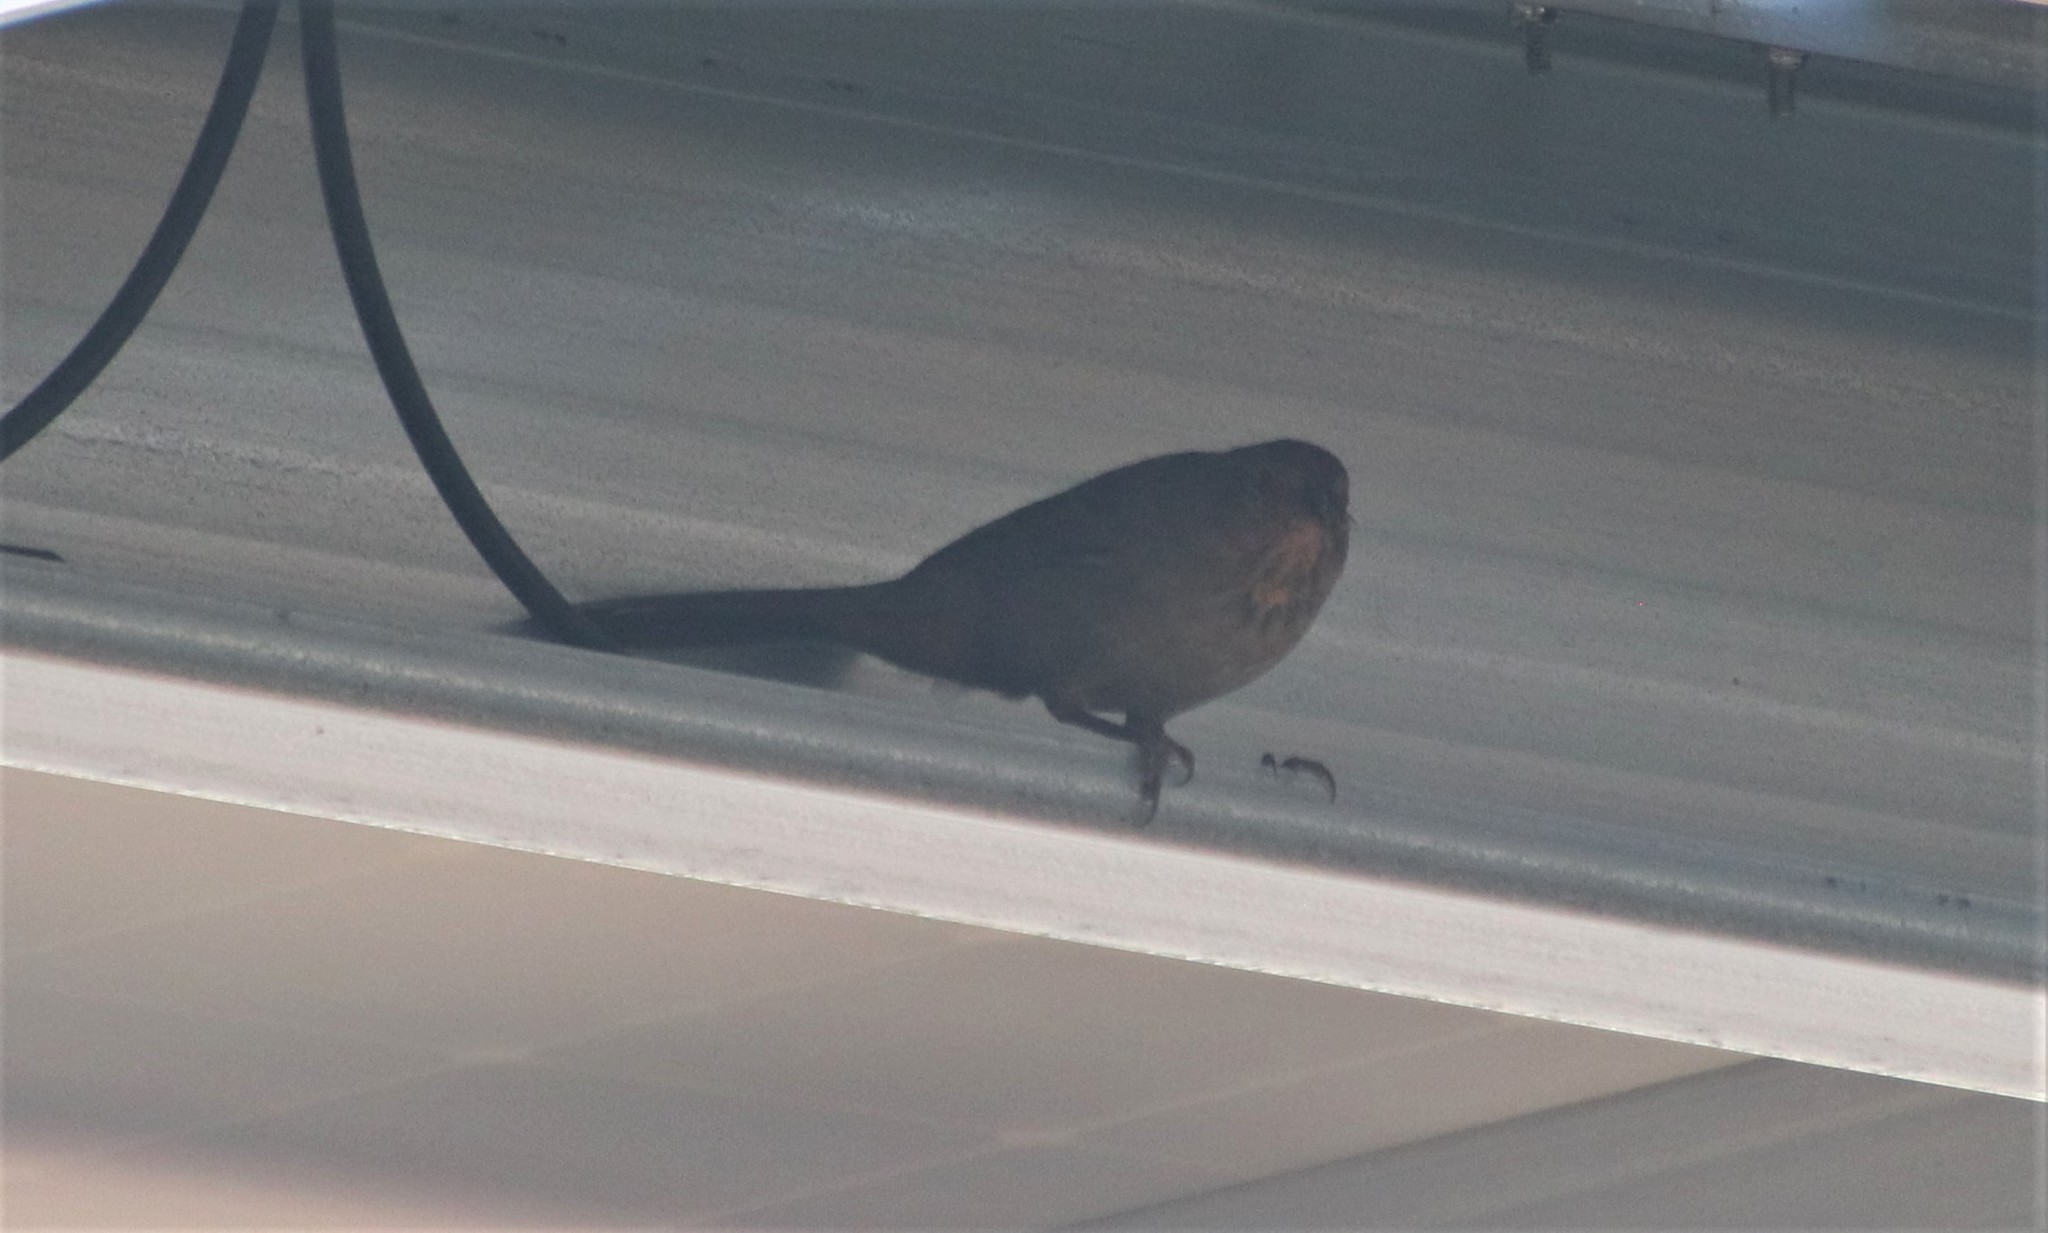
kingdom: Animalia
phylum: Chordata
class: Aves
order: Passeriformes
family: Passerellidae
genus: Melozone
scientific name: Melozone crissalis
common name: California towhee
